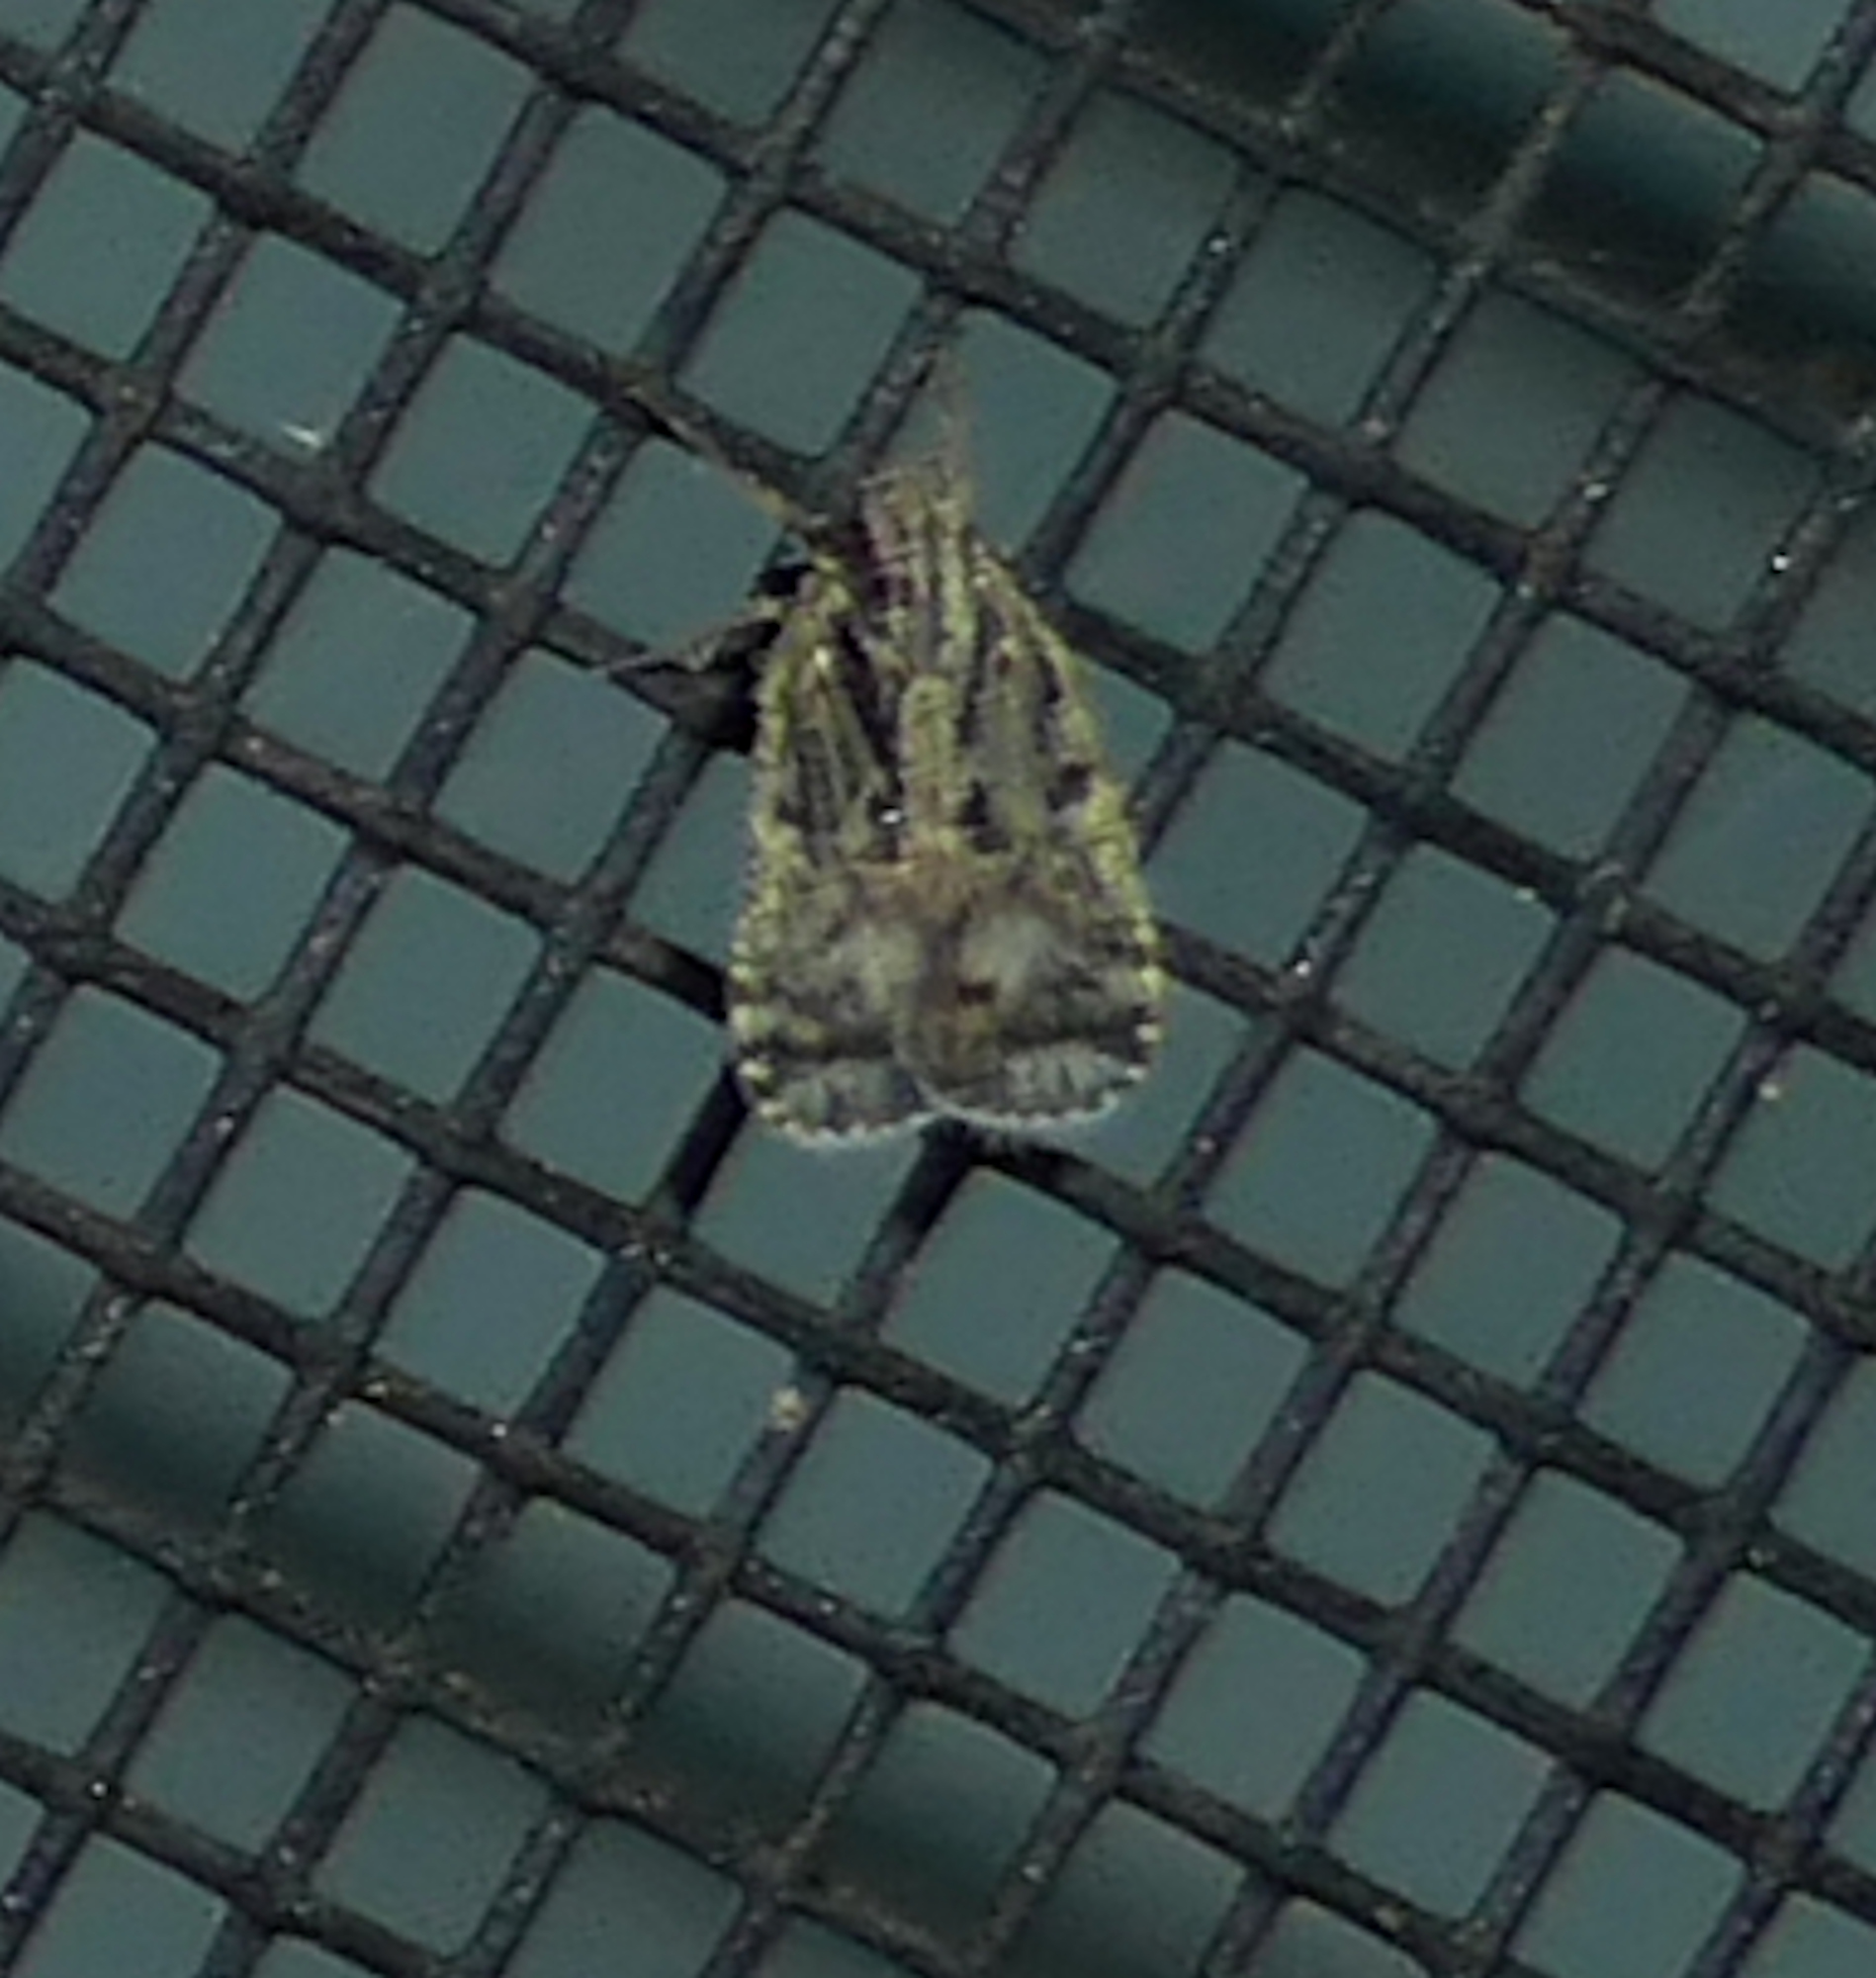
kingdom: Animalia
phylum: Arthropoda
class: Insecta
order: Hemiptera
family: Cixiidae
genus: Bothriocera
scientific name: Bothriocera maculata
